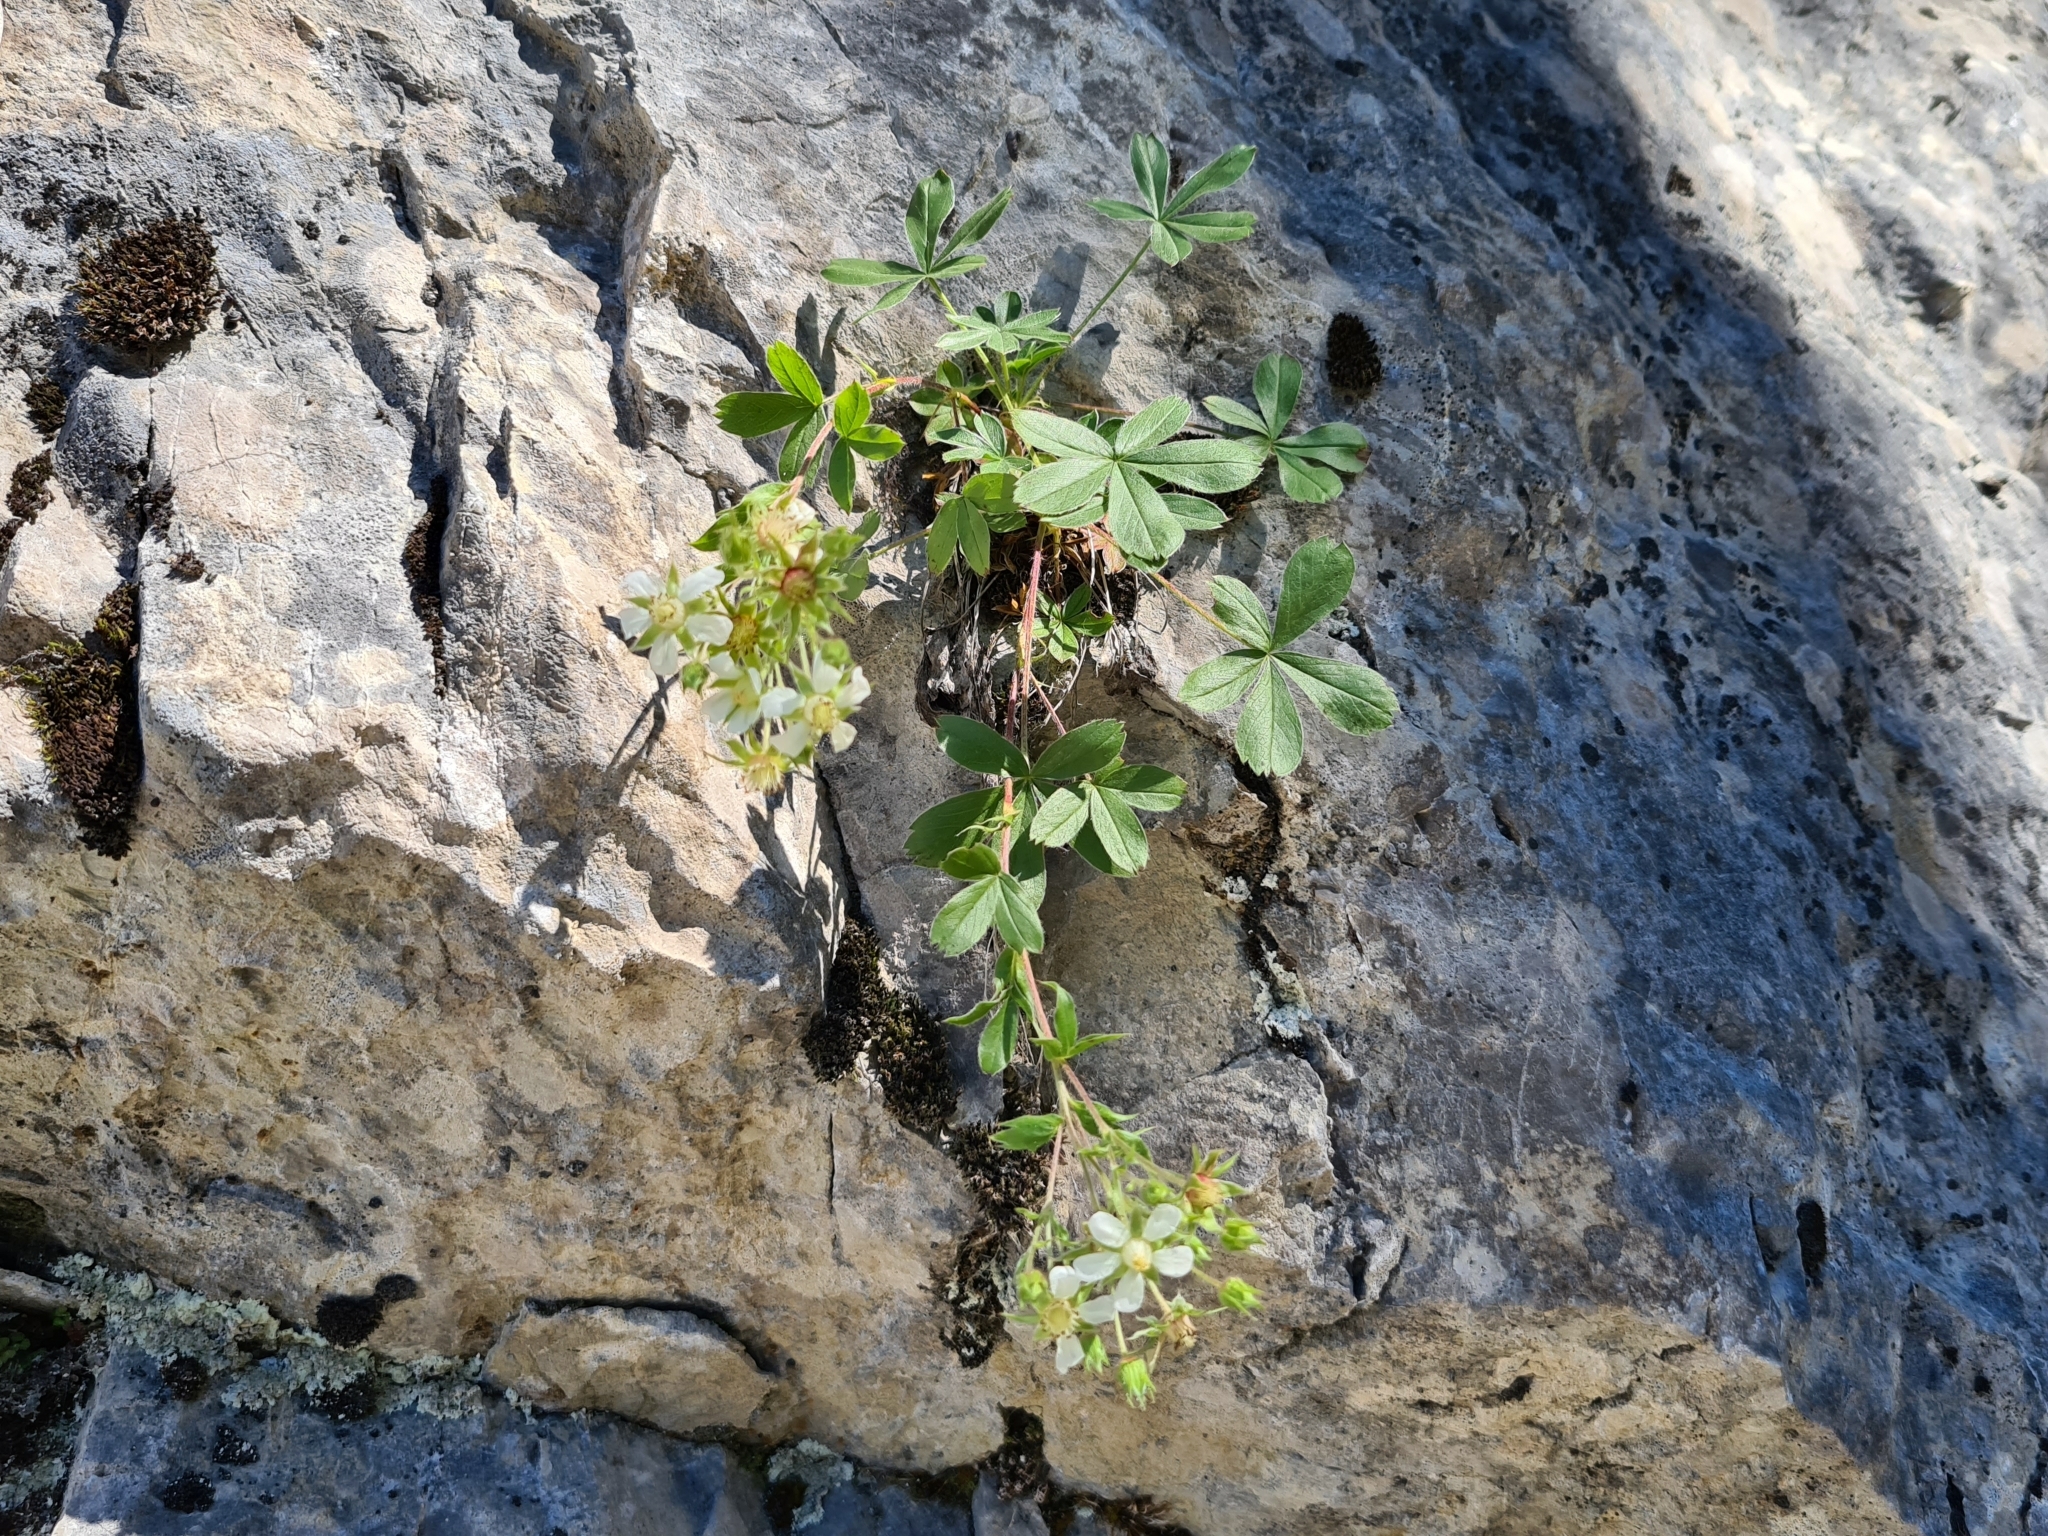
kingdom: Plantae
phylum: Tracheophyta
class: Magnoliopsida
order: Rosales
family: Rosaceae
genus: Potentilla
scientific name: Potentilla caulescens
